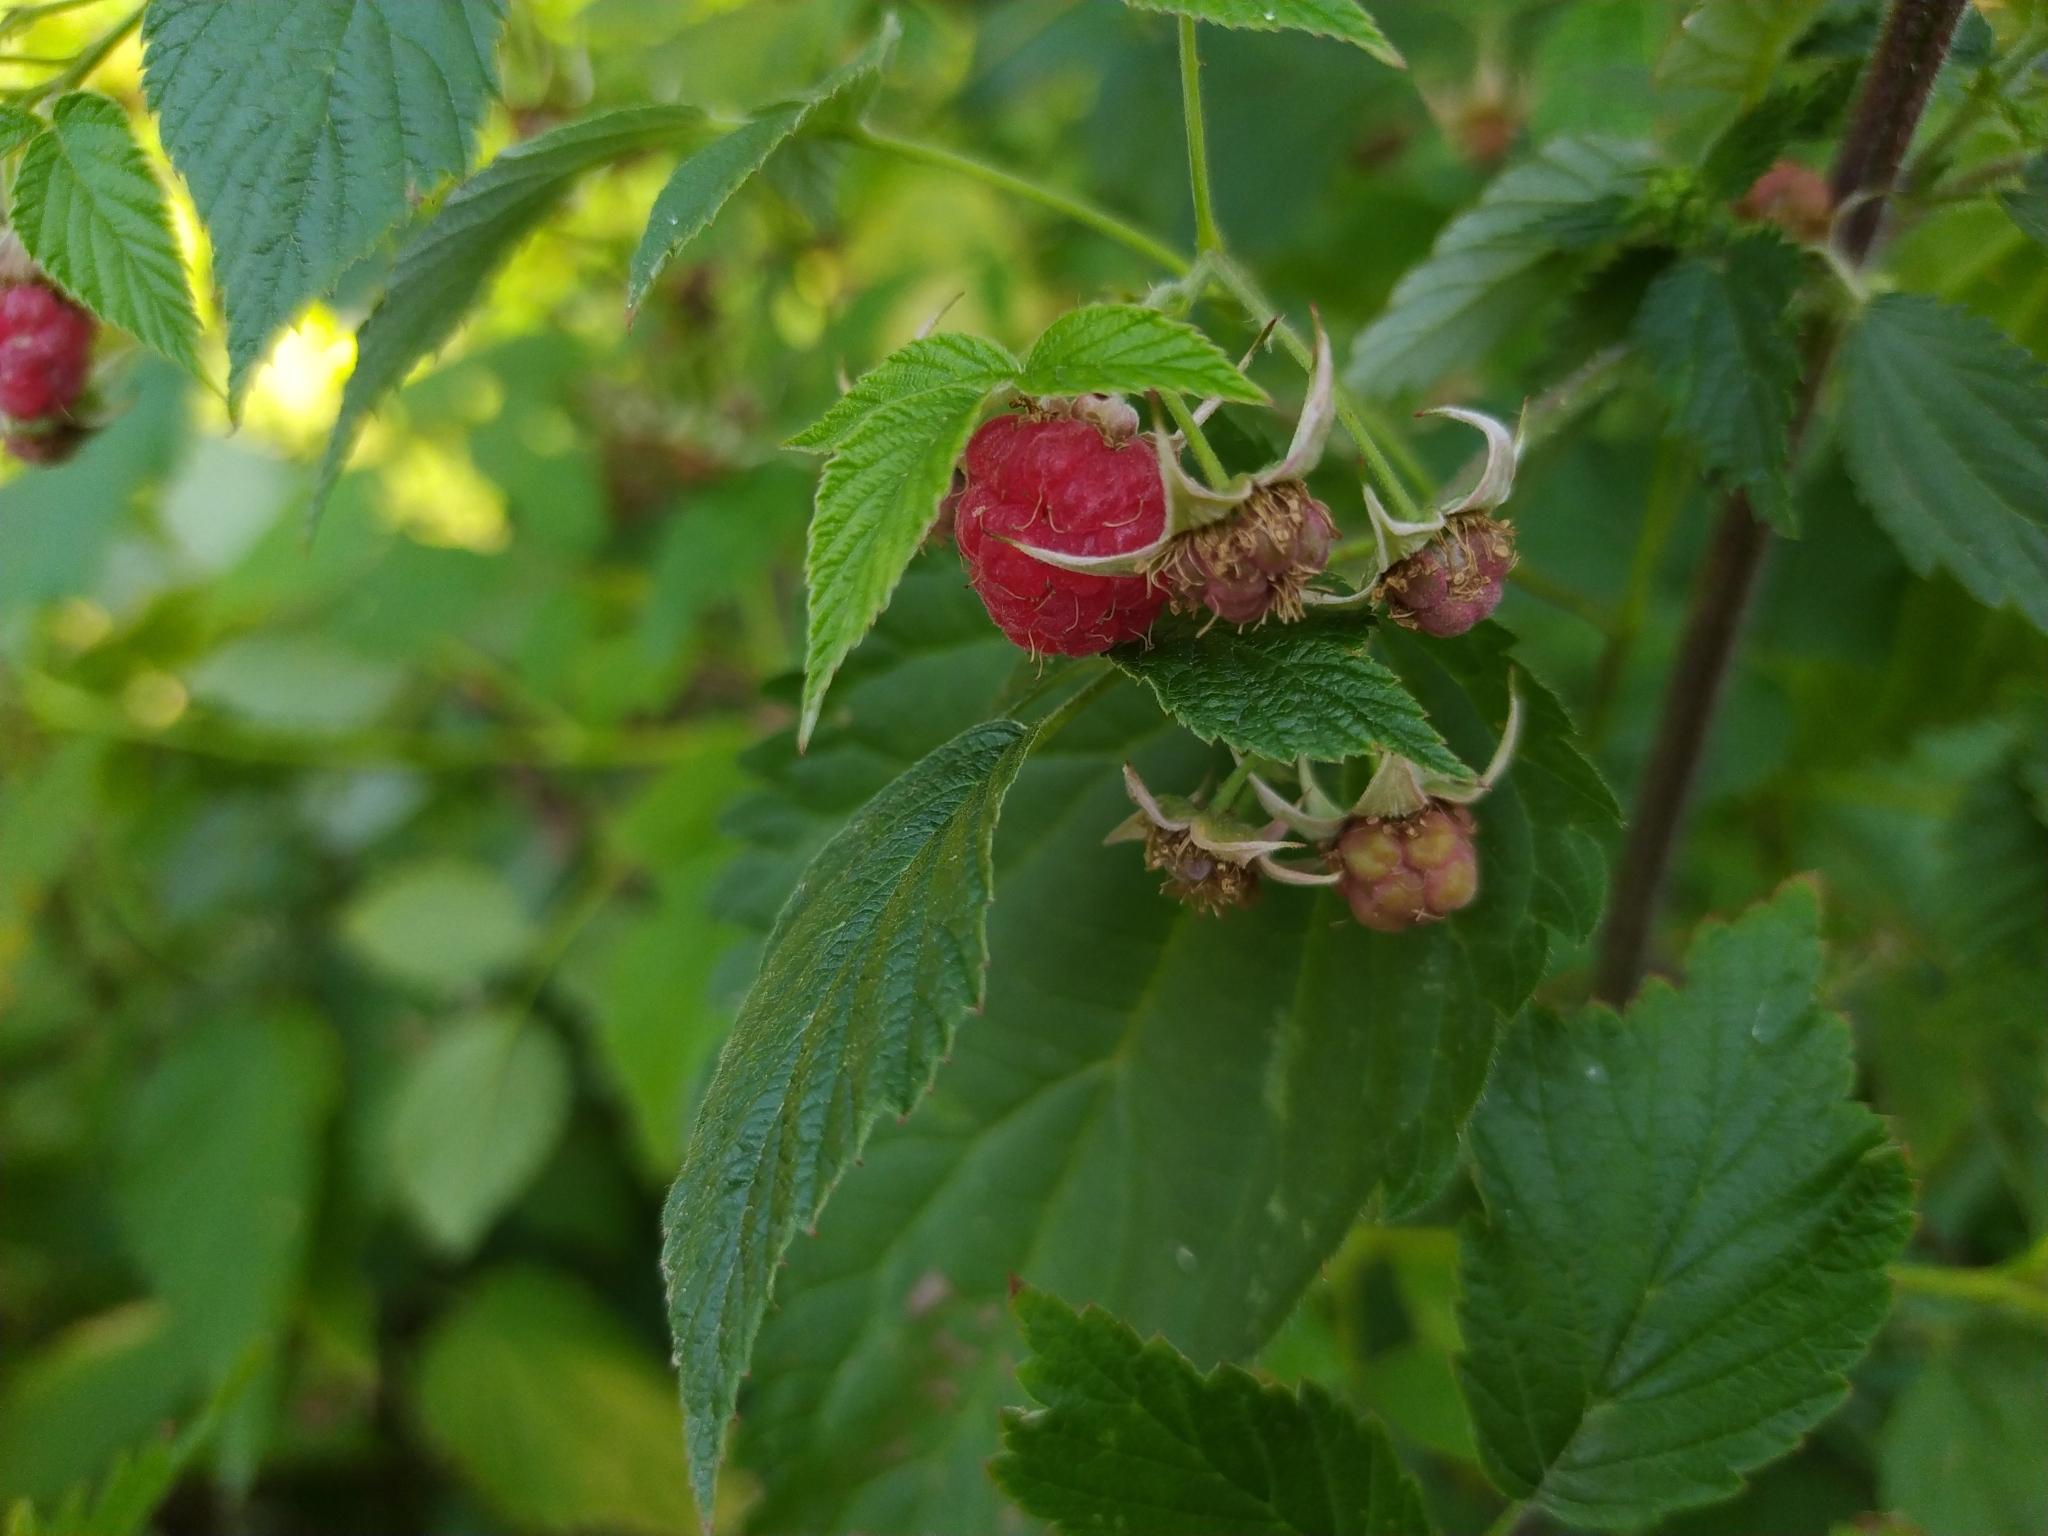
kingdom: Plantae
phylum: Tracheophyta
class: Magnoliopsida
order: Rosales
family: Rosaceae
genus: Rubus
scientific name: Rubus idaeus
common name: Raspberry
